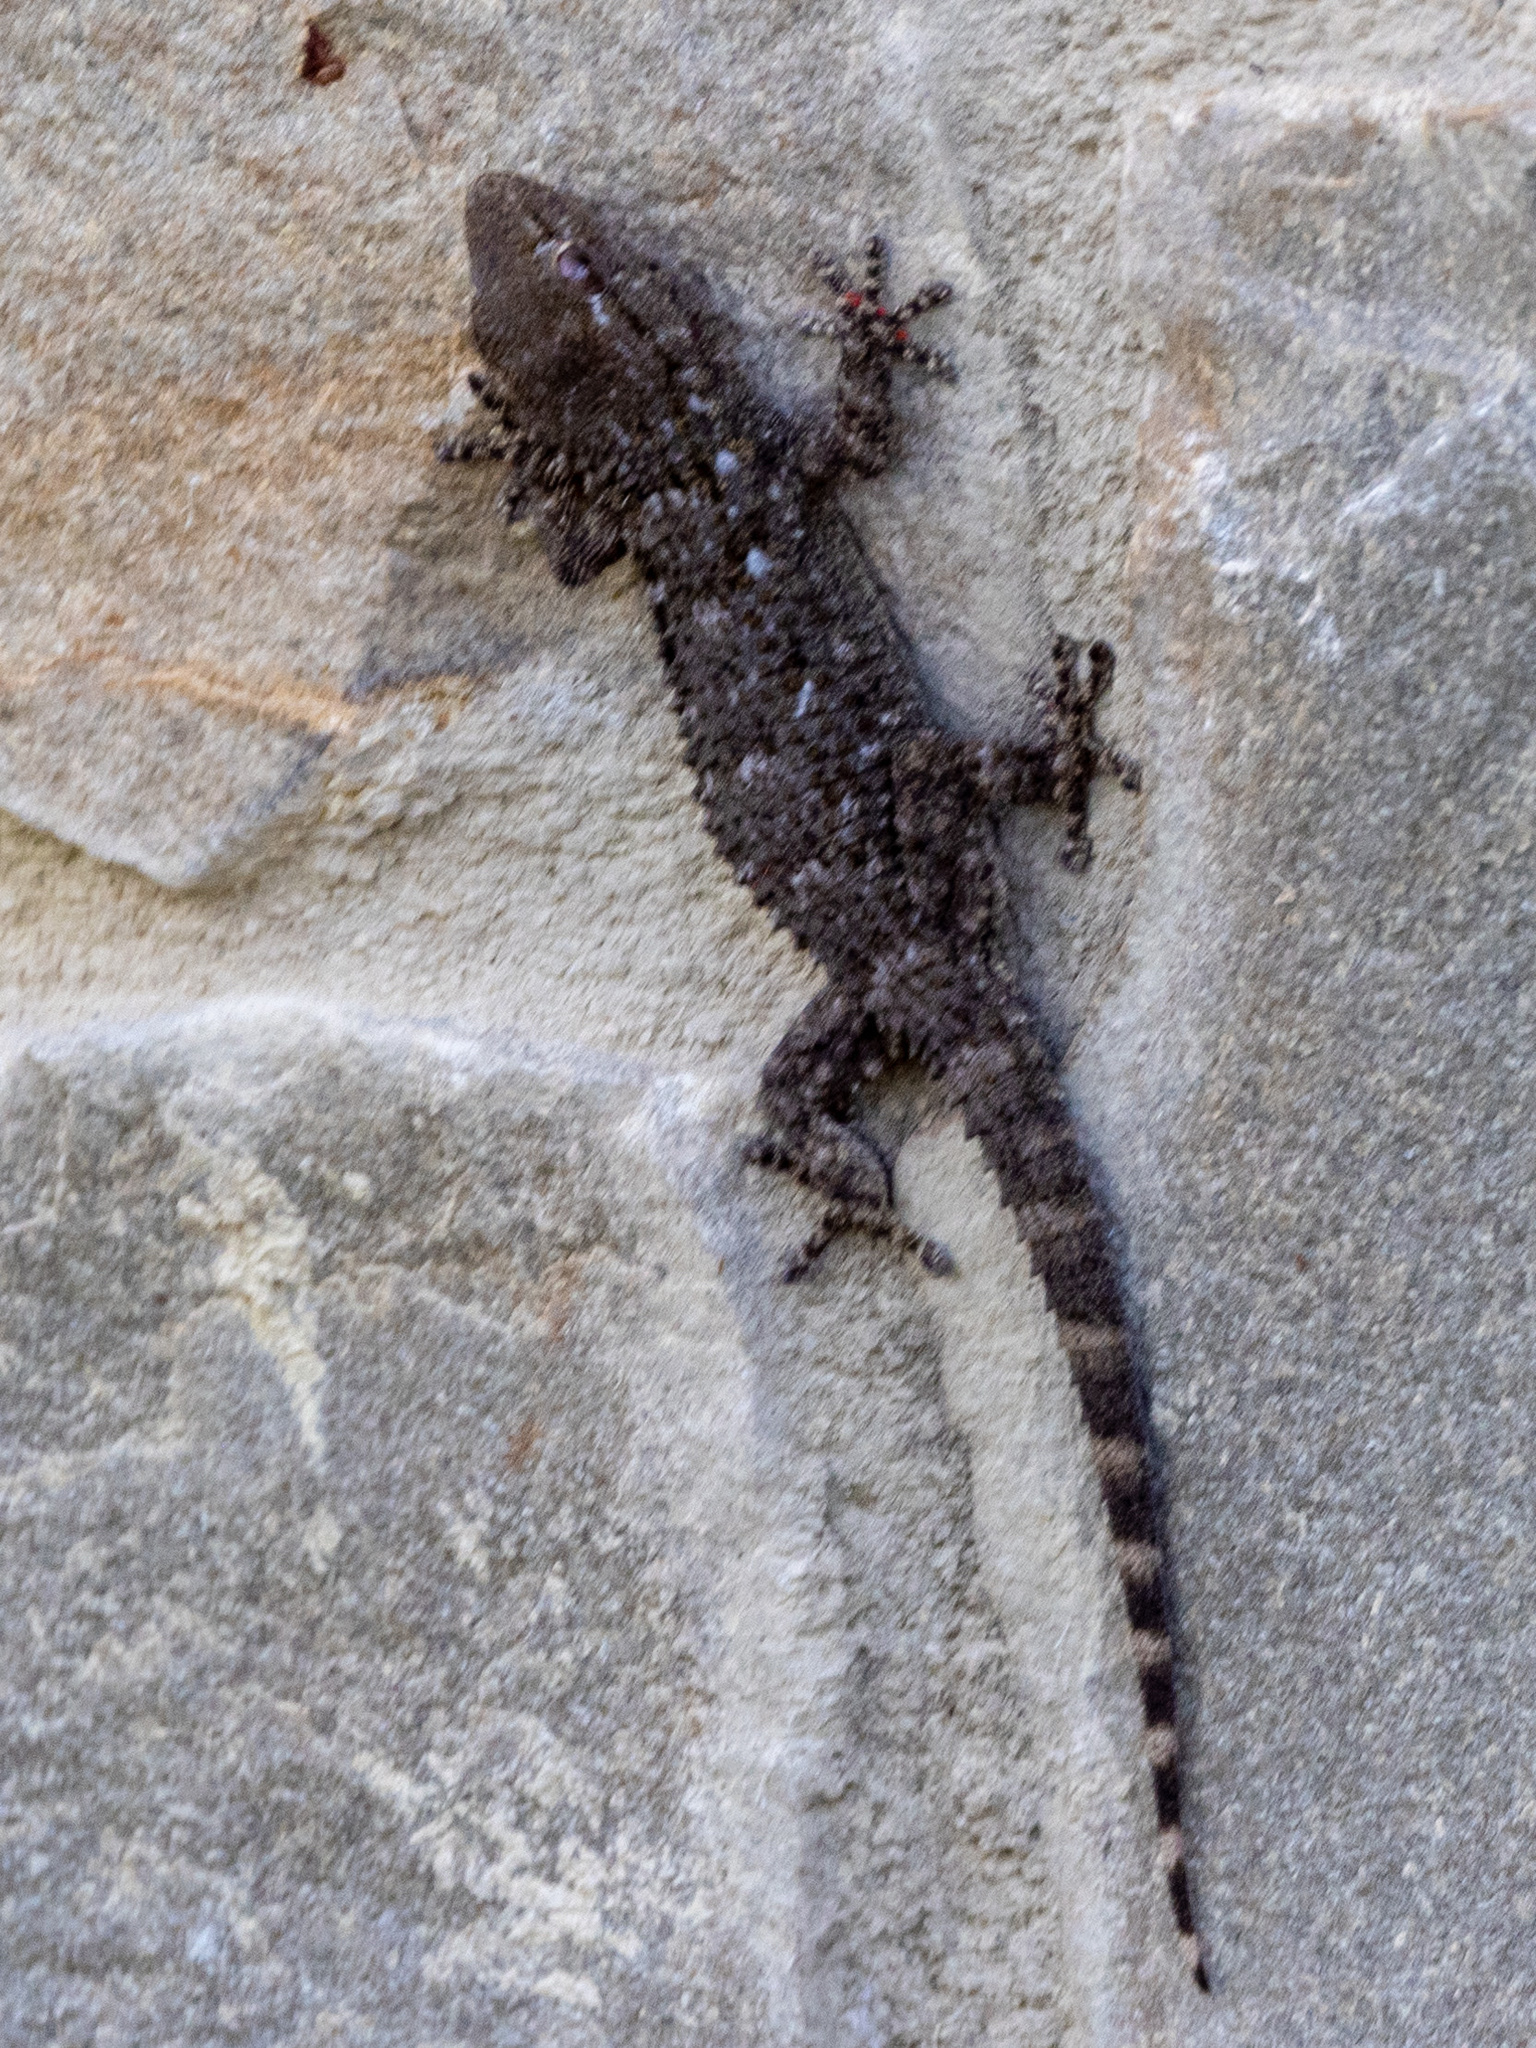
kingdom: Animalia
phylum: Chordata
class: Squamata
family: Phyllodactylidae
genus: Tarentola
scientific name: Tarentola mauritanica
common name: Moorish gecko
